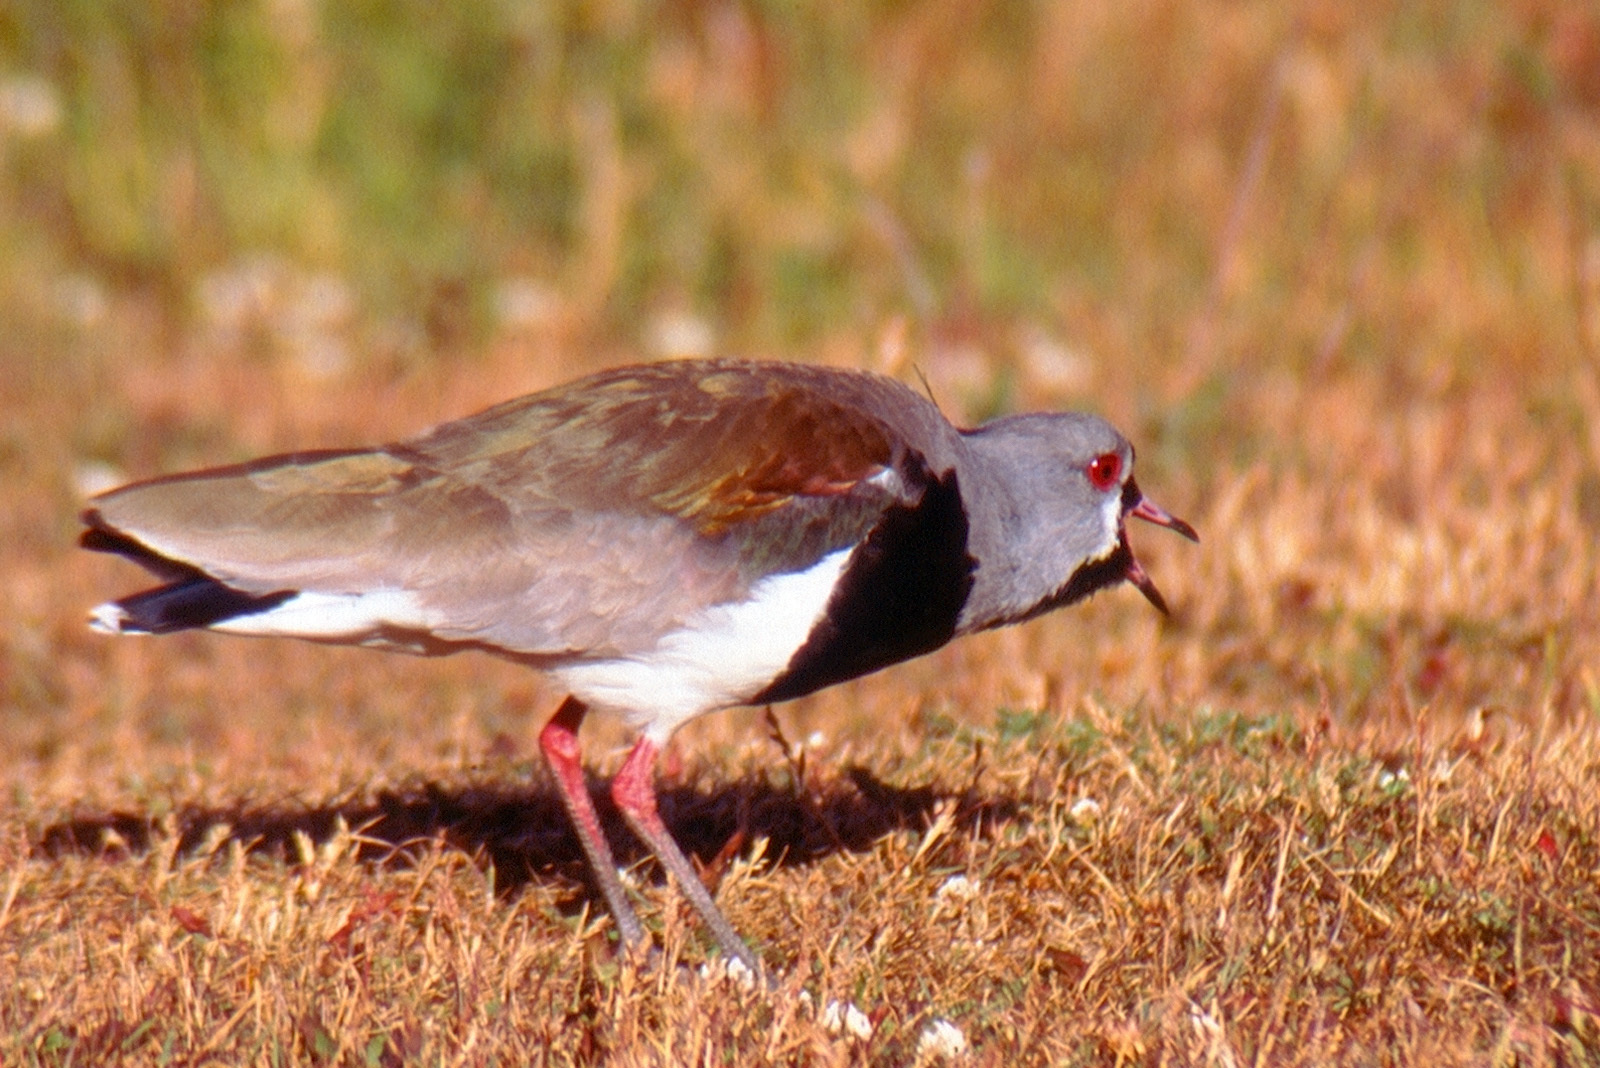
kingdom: Animalia
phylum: Chordata
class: Aves
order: Charadriiformes
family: Charadriidae
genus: Vanellus
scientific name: Vanellus chilensis
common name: Southern lapwing
